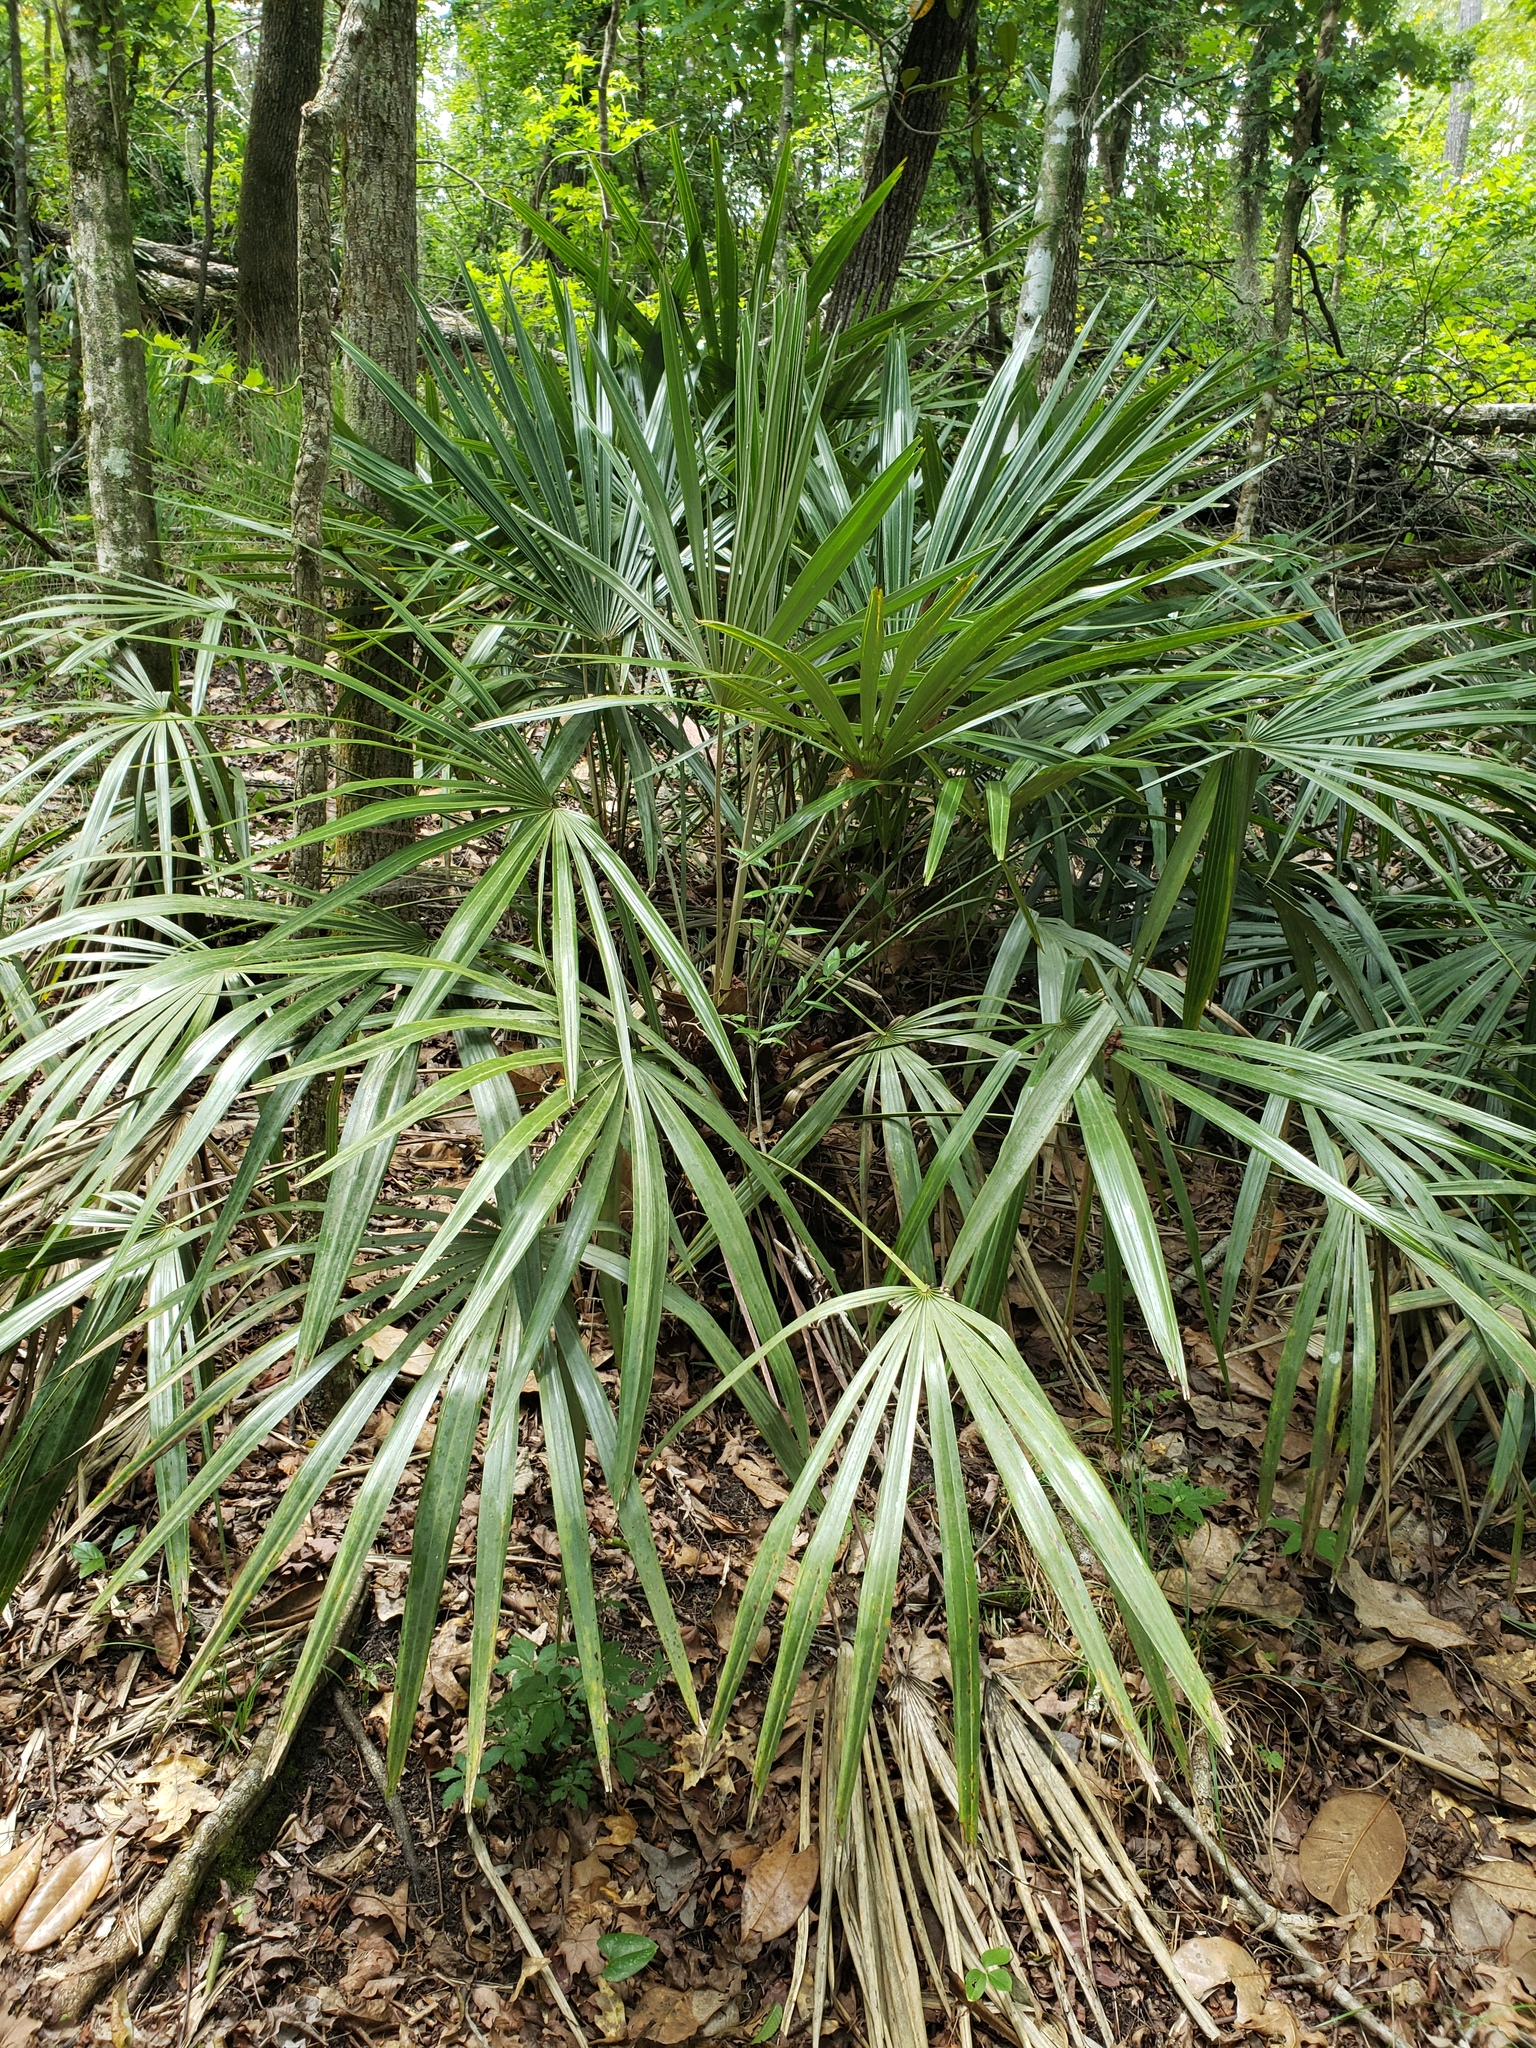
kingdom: Plantae
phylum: Tracheophyta
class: Liliopsida
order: Arecales
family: Arecaceae
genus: Rhapidophyllum
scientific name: Rhapidophyllum hystrix
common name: Porcupine palm
